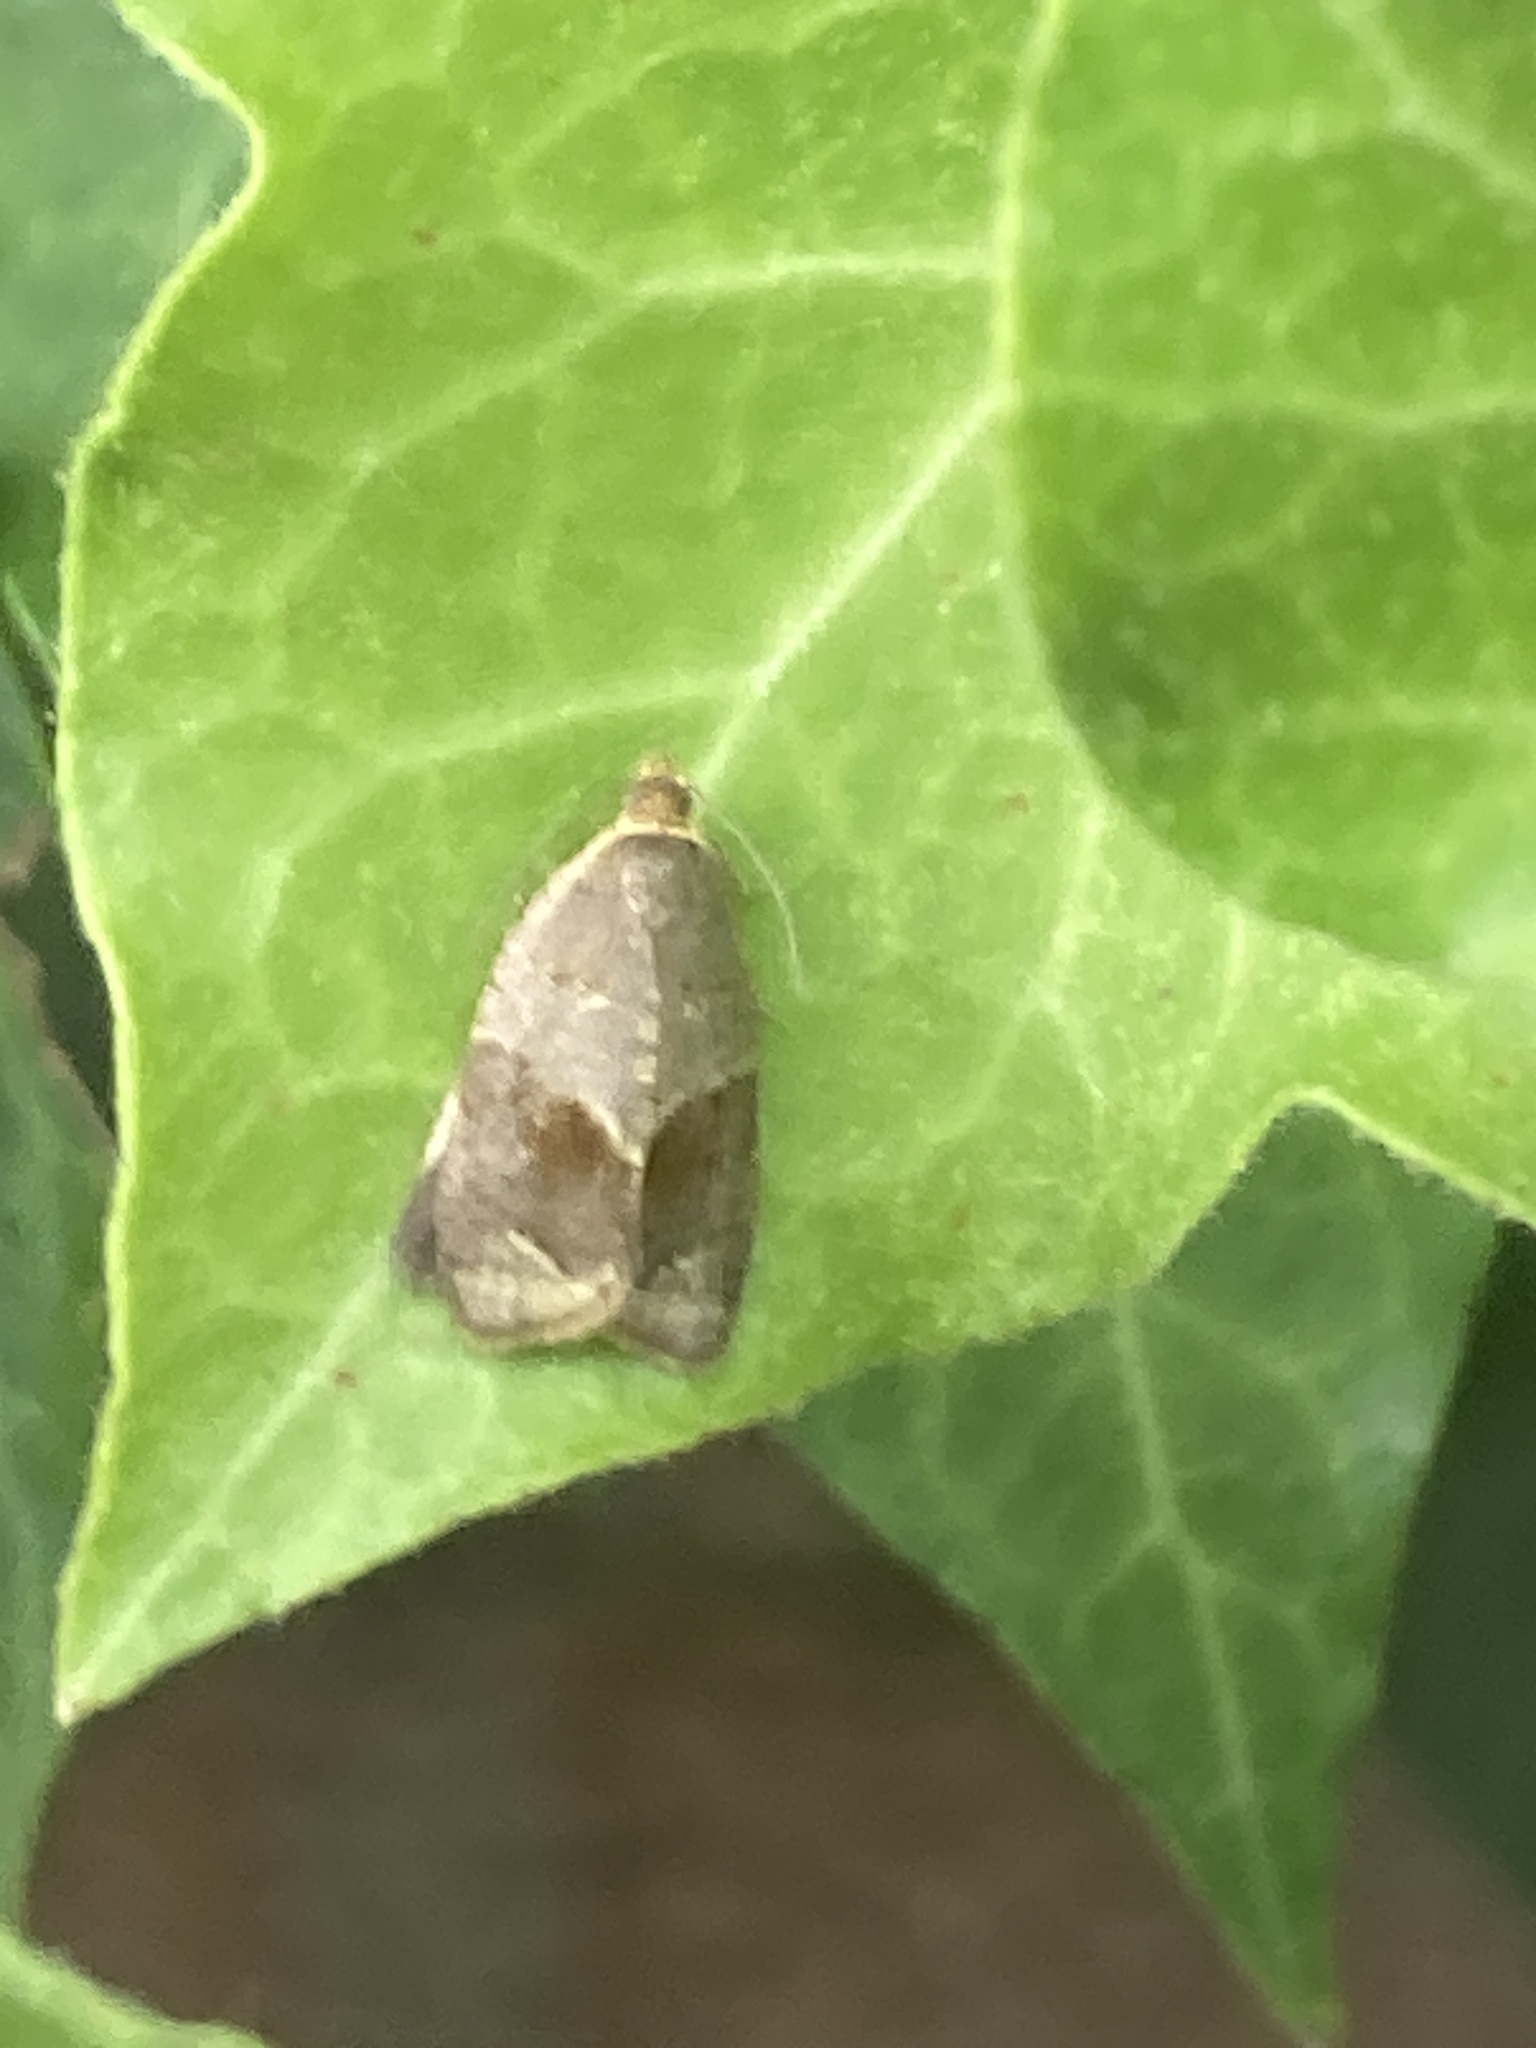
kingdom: Animalia
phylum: Arthropoda
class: Insecta
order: Lepidoptera
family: Tortricidae
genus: Clepsis
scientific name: Clepsis dumicolana
